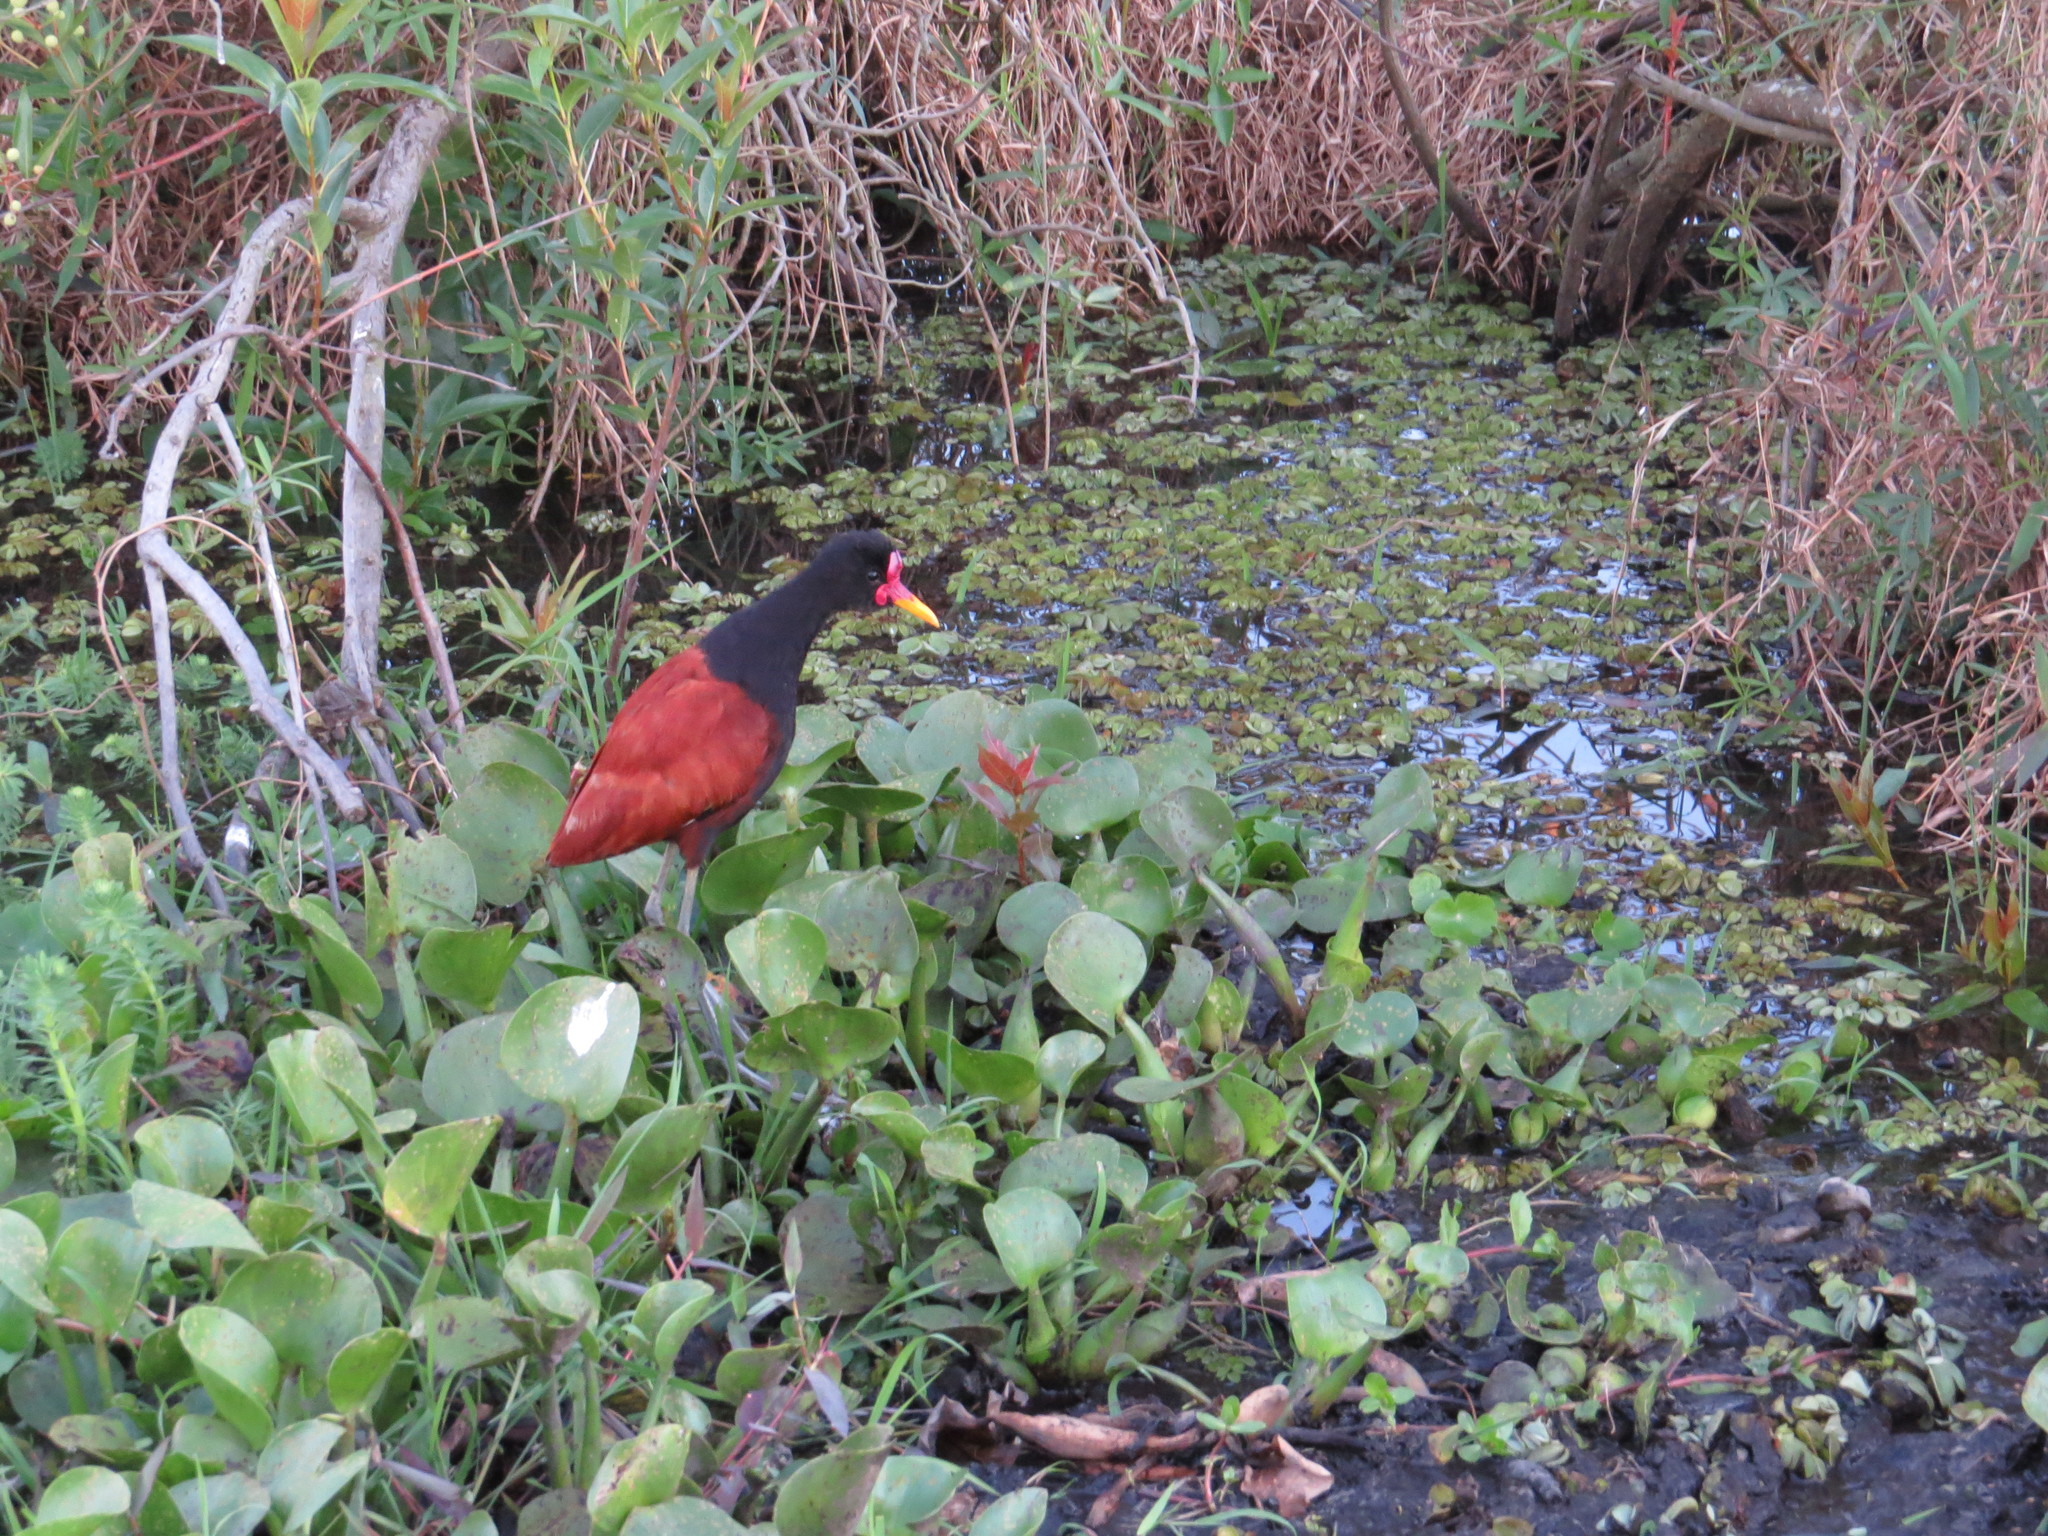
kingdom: Animalia
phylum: Chordata
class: Aves
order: Charadriiformes
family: Jacanidae
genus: Jacana
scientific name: Jacana jacana
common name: Wattled jacana
